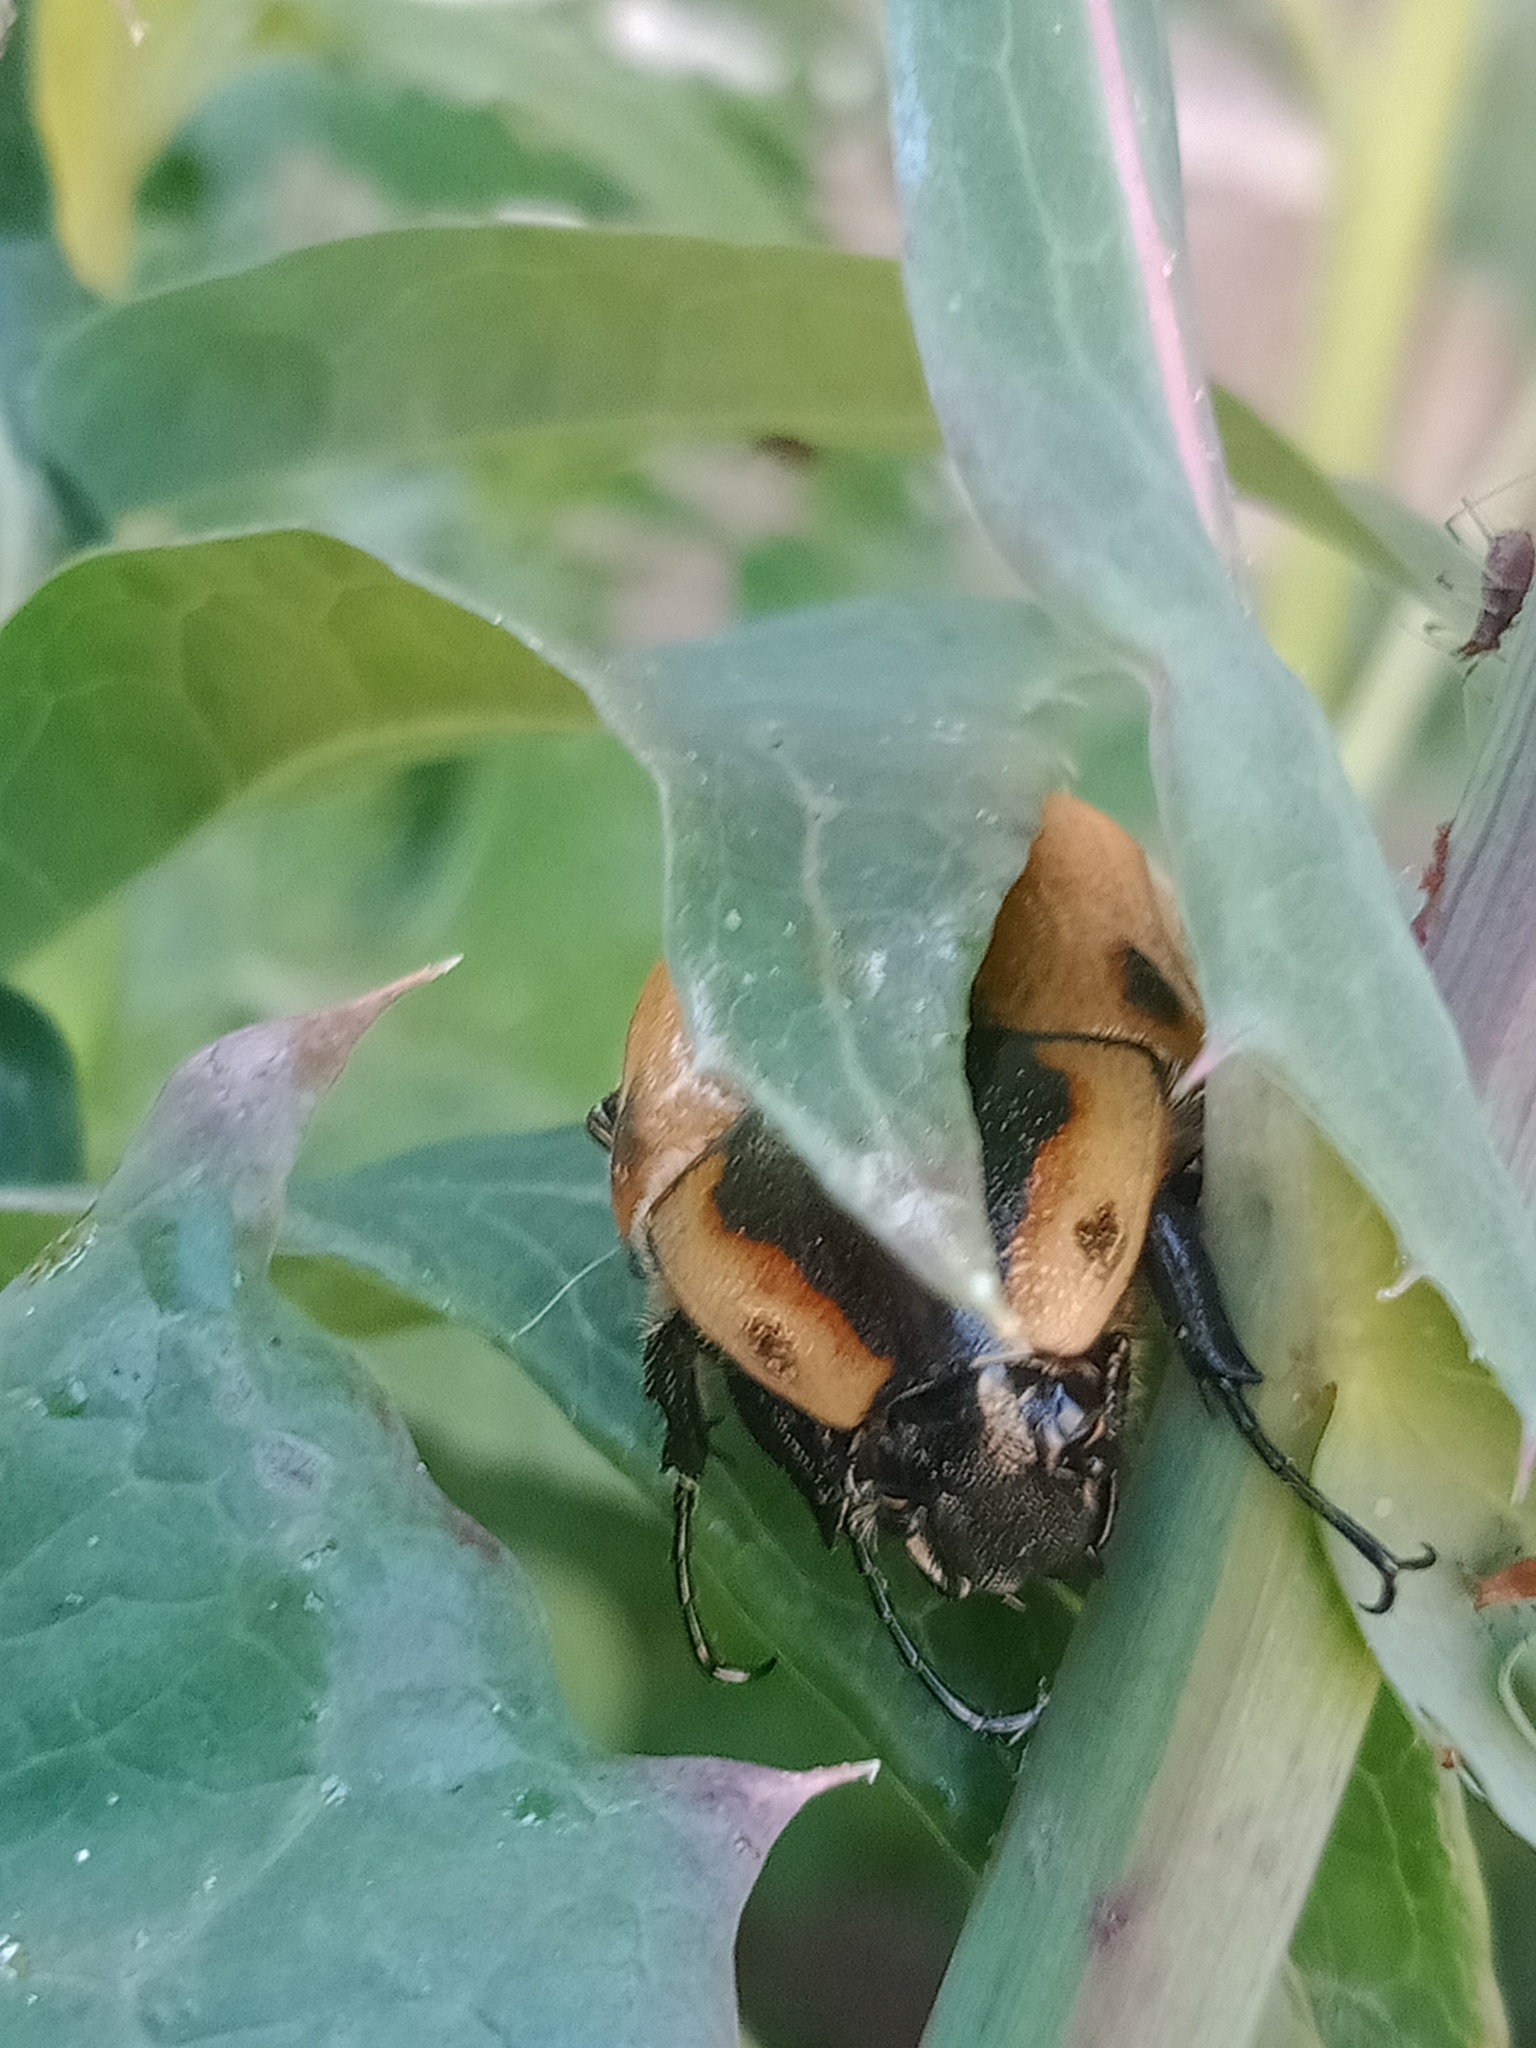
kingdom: Animalia
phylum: Arthropoda
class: Insecta
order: Coleoptera
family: Scarabaeidae
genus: Chondropyga
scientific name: Chondropyga dorsalis
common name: Cowboy beetle
